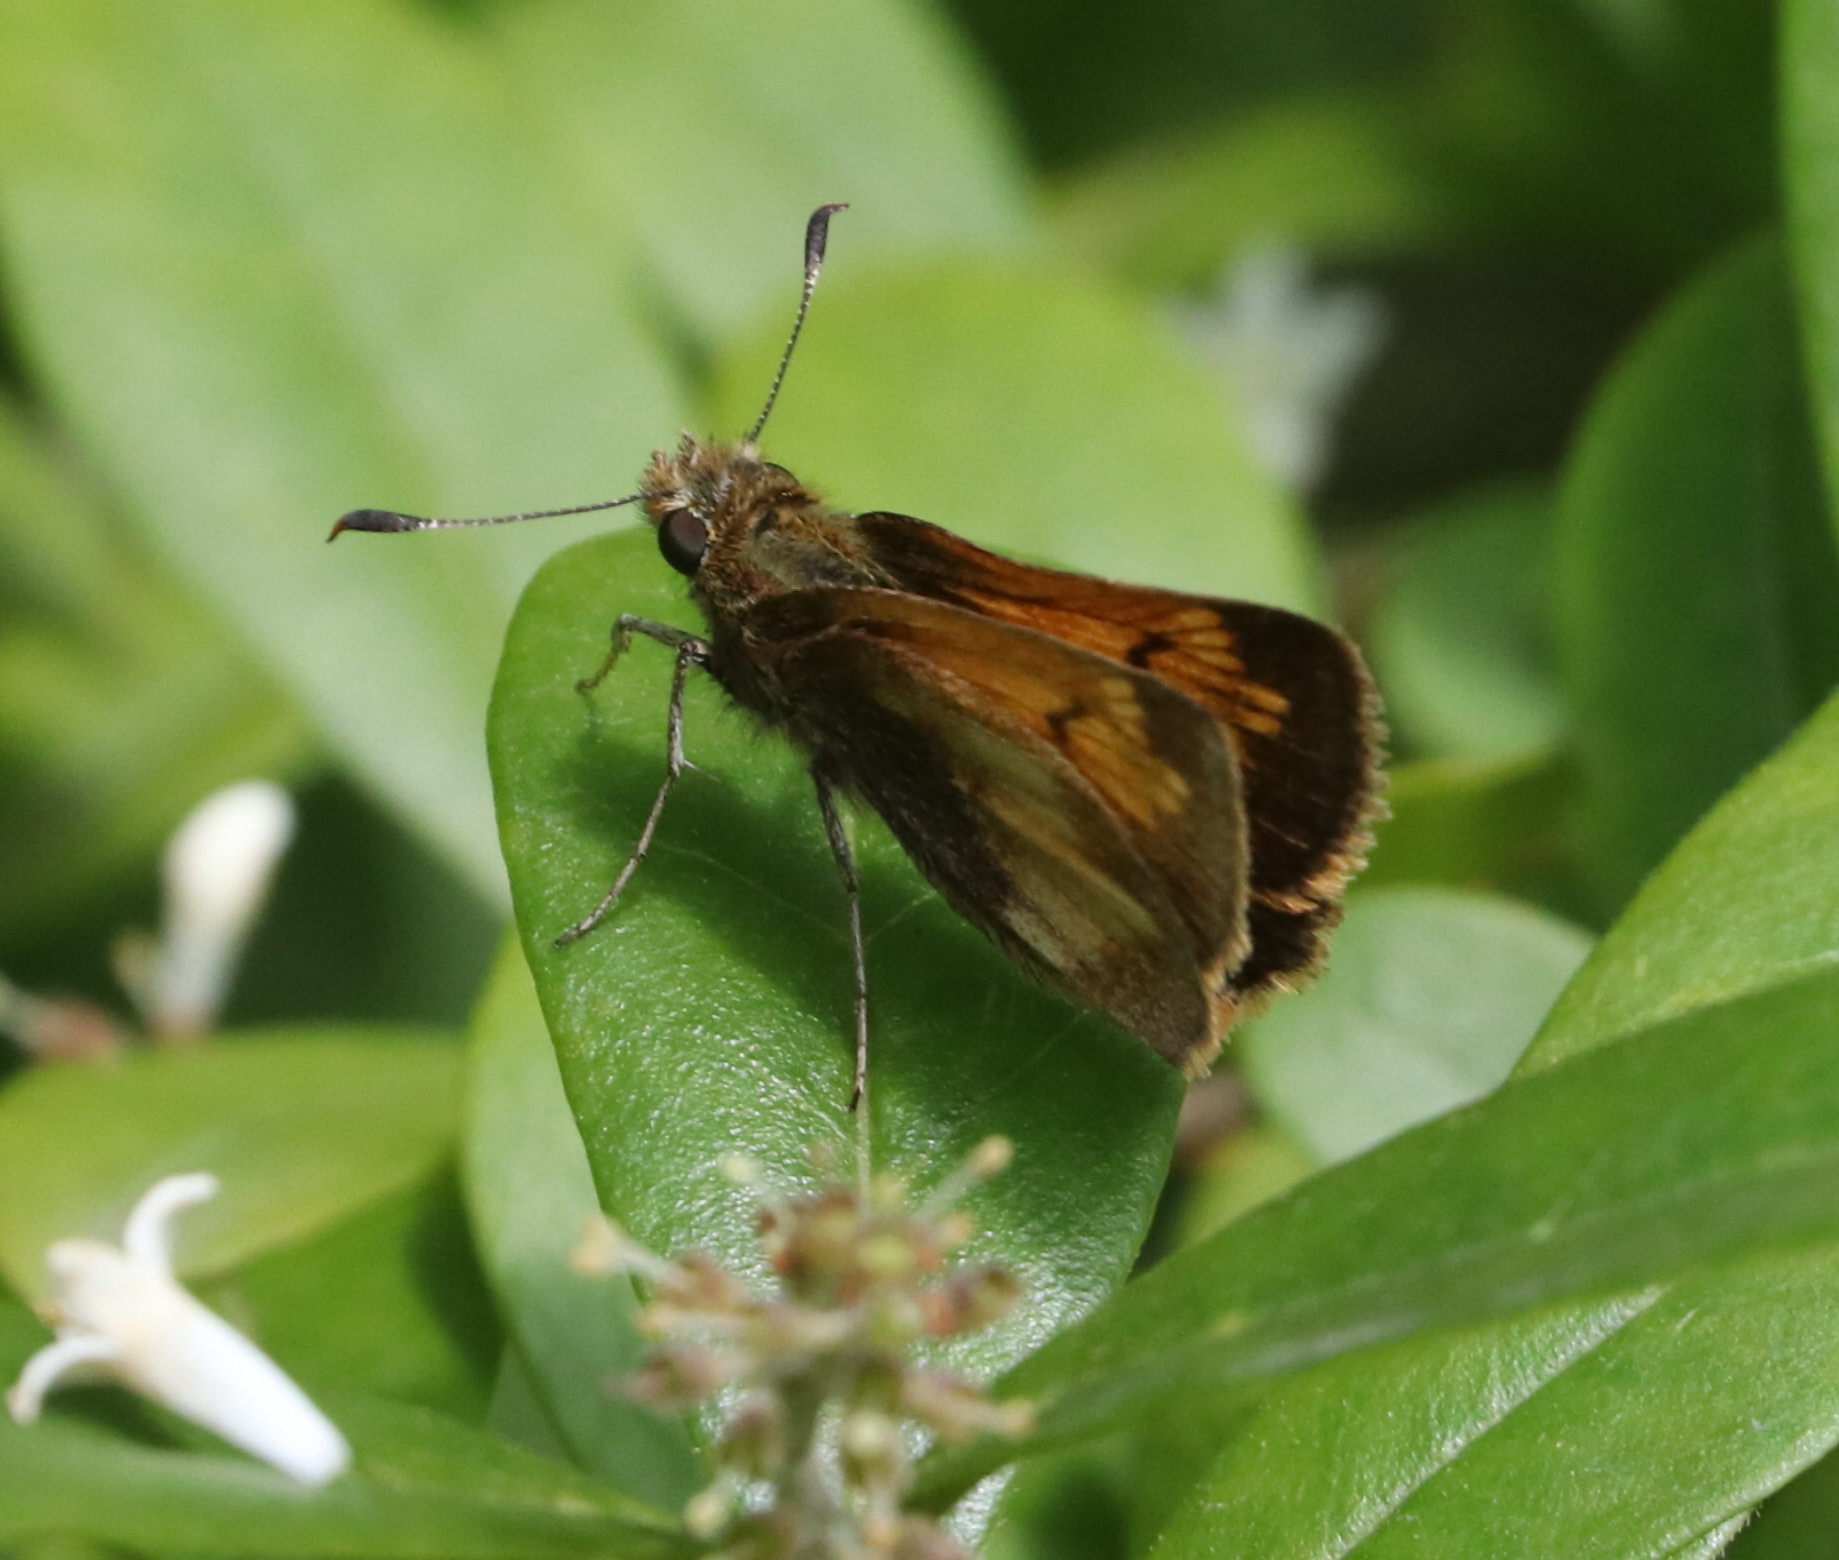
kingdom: Animalia
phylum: Arthropoda
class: Insecta
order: Lepidoptera
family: Hesperiidae
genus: Lon
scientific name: Lon hobomok
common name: Hobomok skipper
